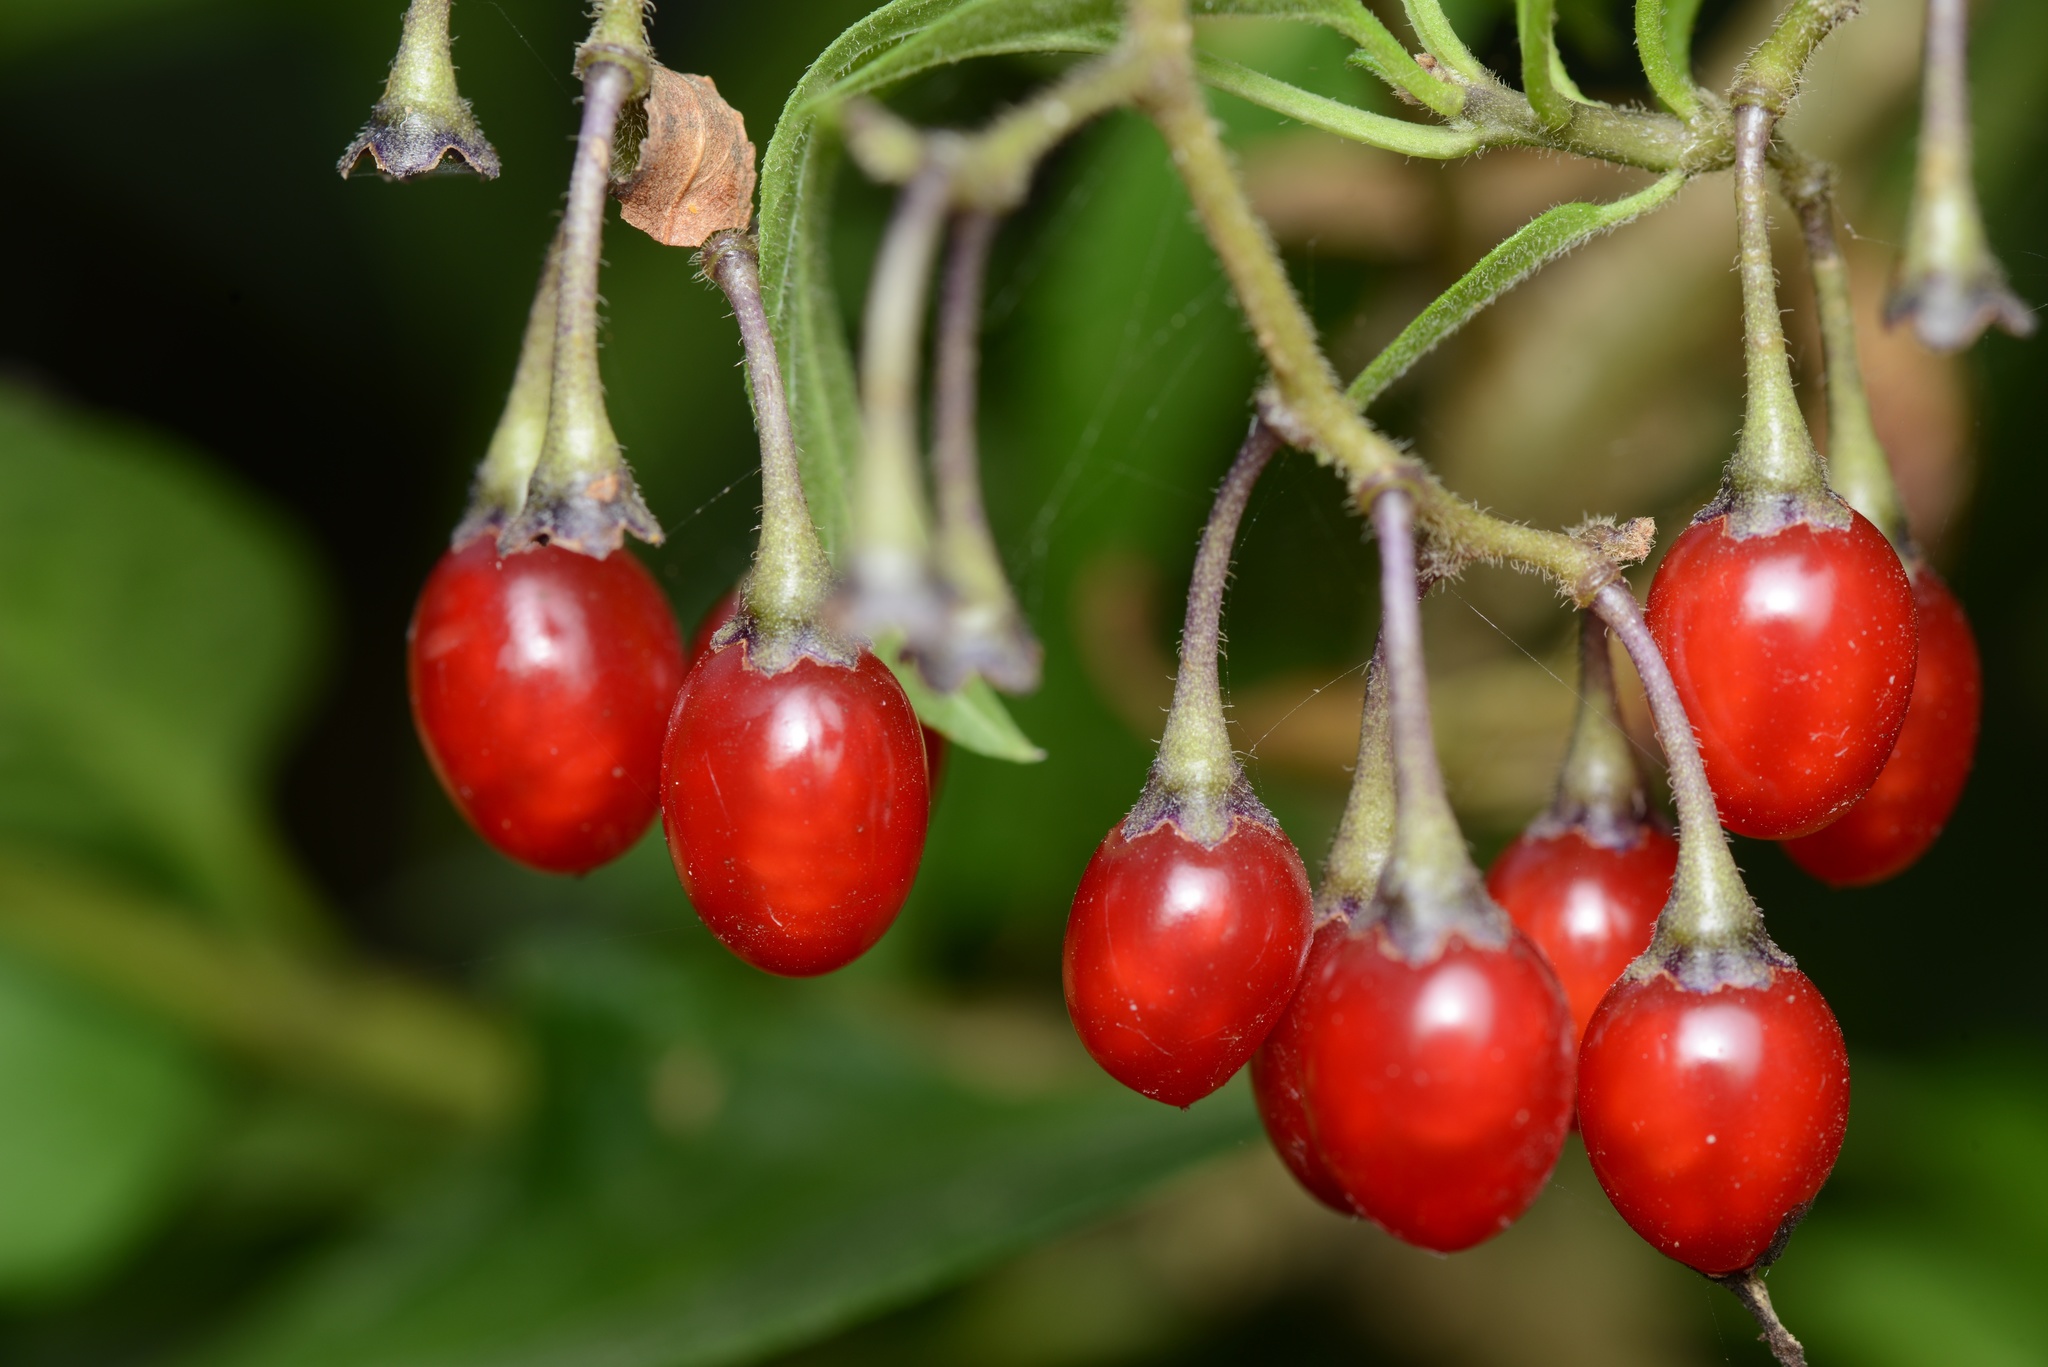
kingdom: Plantae
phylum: Tracheophyta
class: Magnoliopsida
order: Solanales
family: Solanaceae
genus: Solanum
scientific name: Solanum dulcamara
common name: Climbing nightshade
